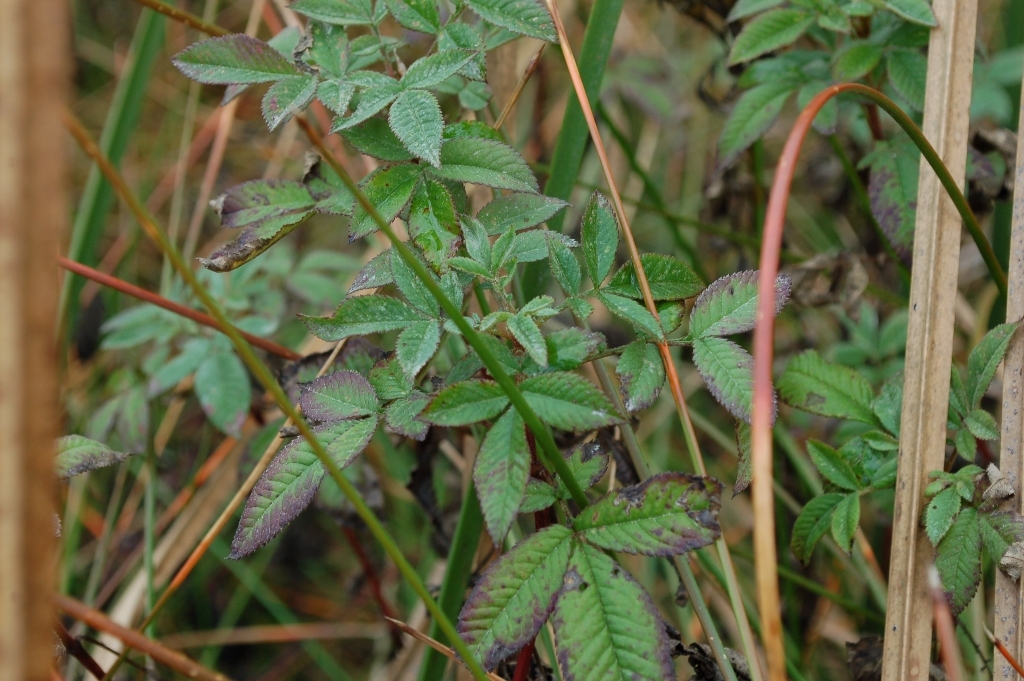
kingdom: Plantae
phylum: Tracheophyta
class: Magnoliopsida
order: Asterales
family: Asteraceae
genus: Tagetes
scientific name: Tagetes nelsonii
